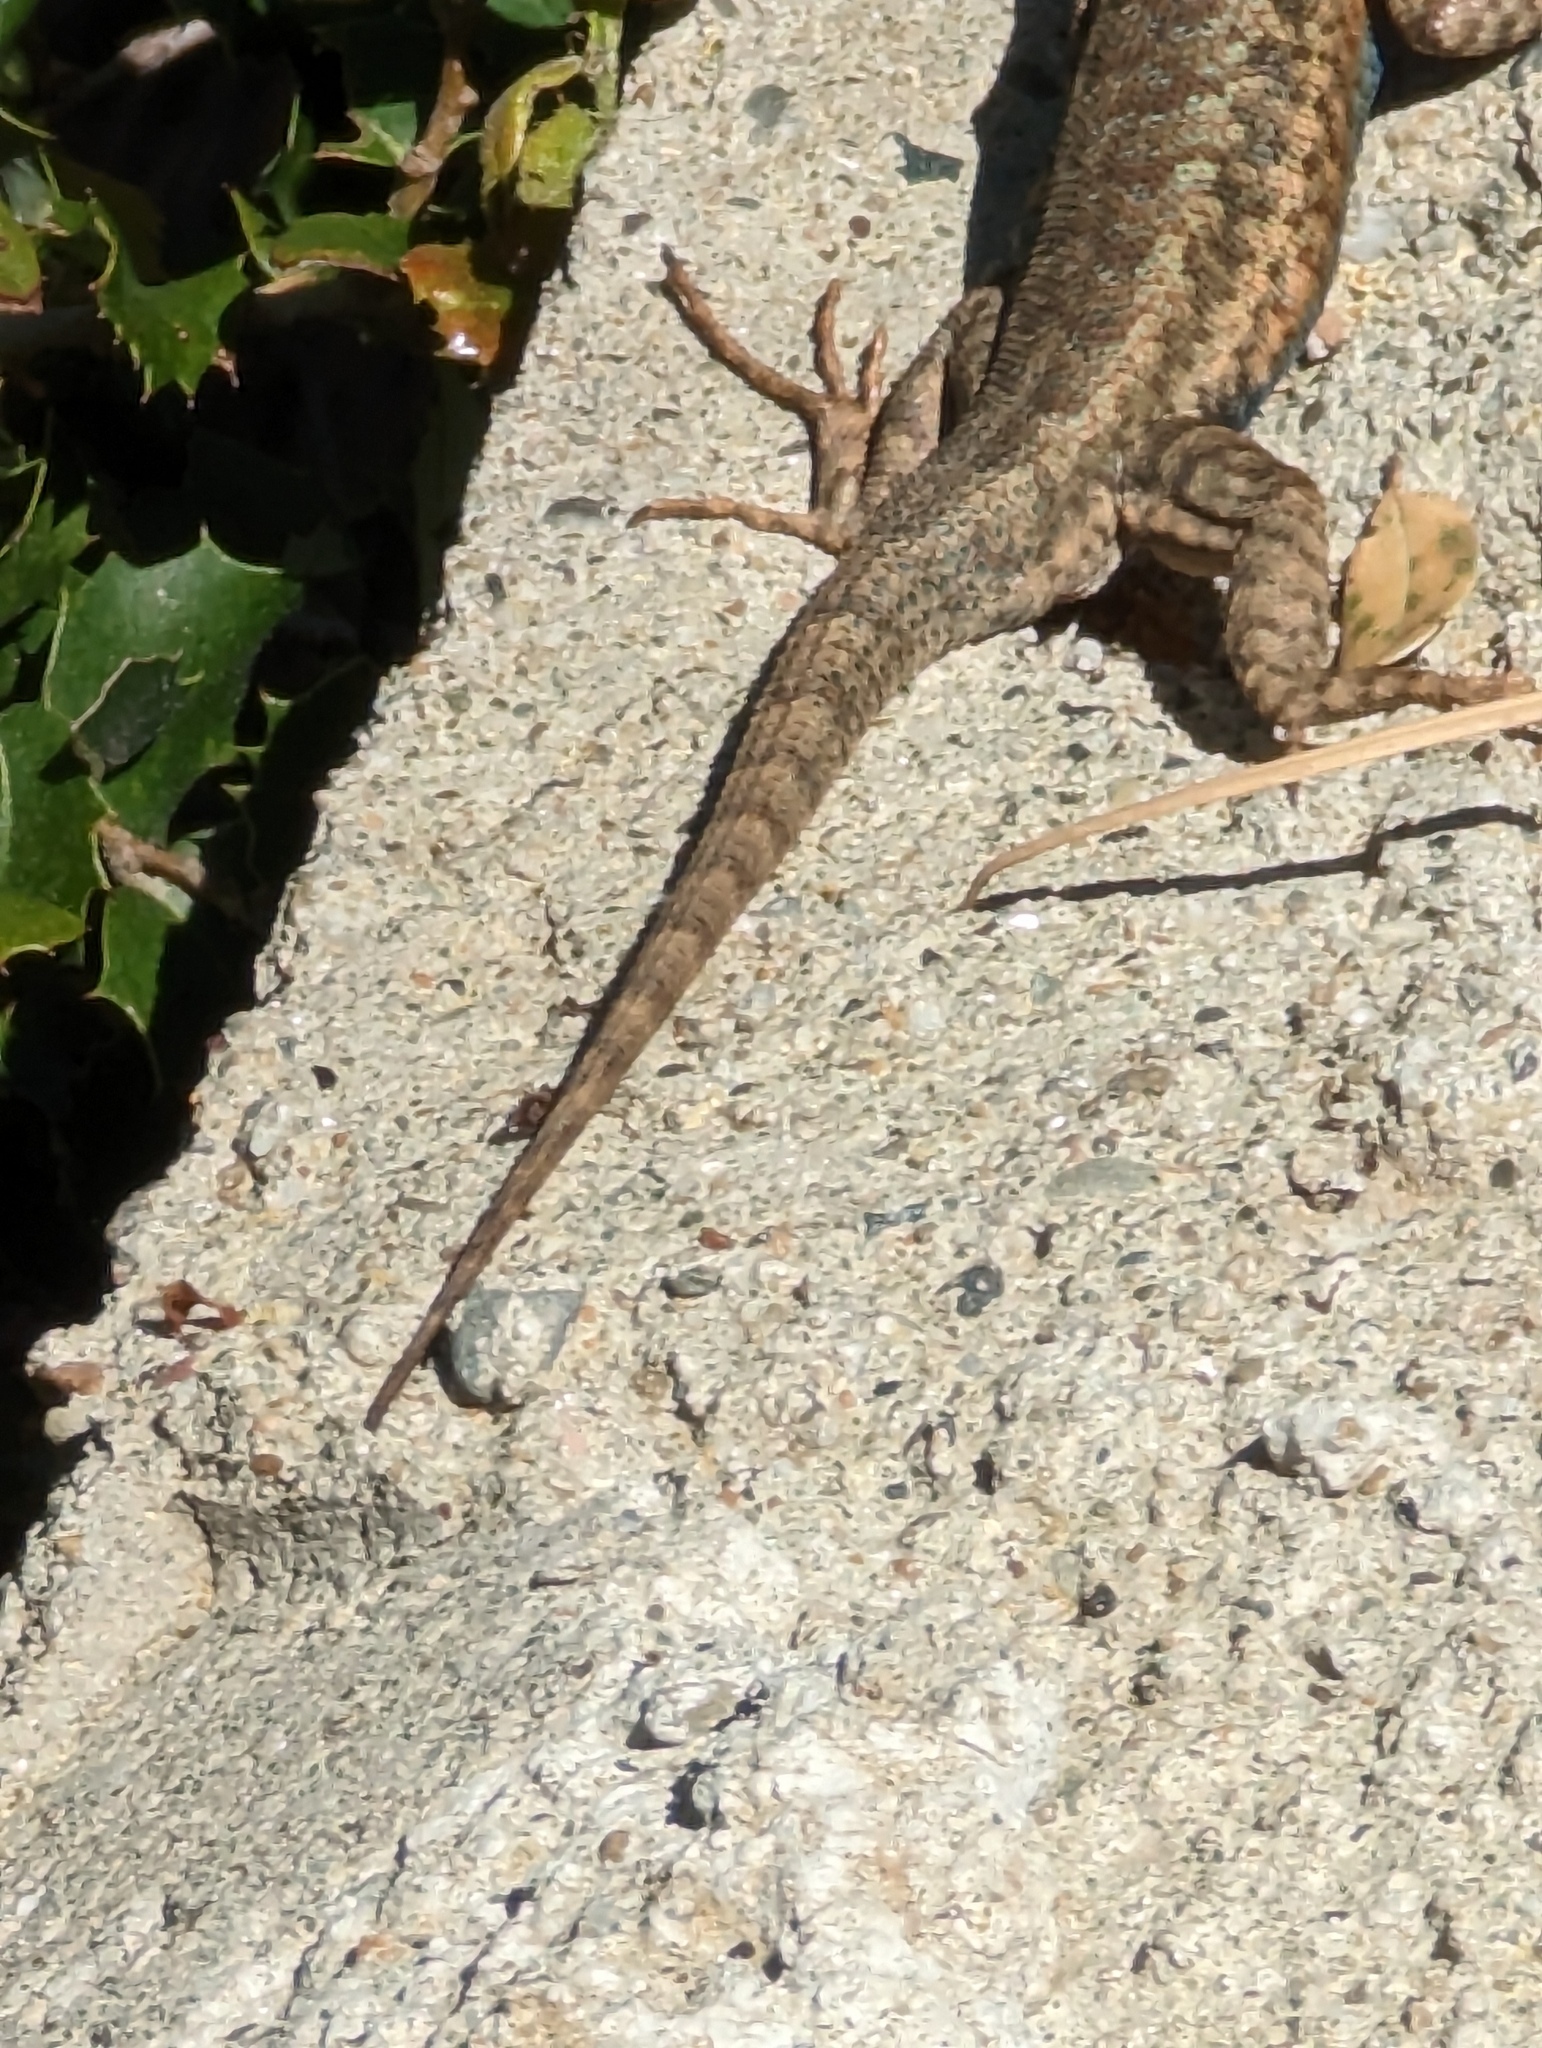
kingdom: Animalia
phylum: Chordata
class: Squamata
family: Phrynosomatidae
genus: Sceloporus
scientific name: Sceloporus graciosus
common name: Sagebrush lizard
